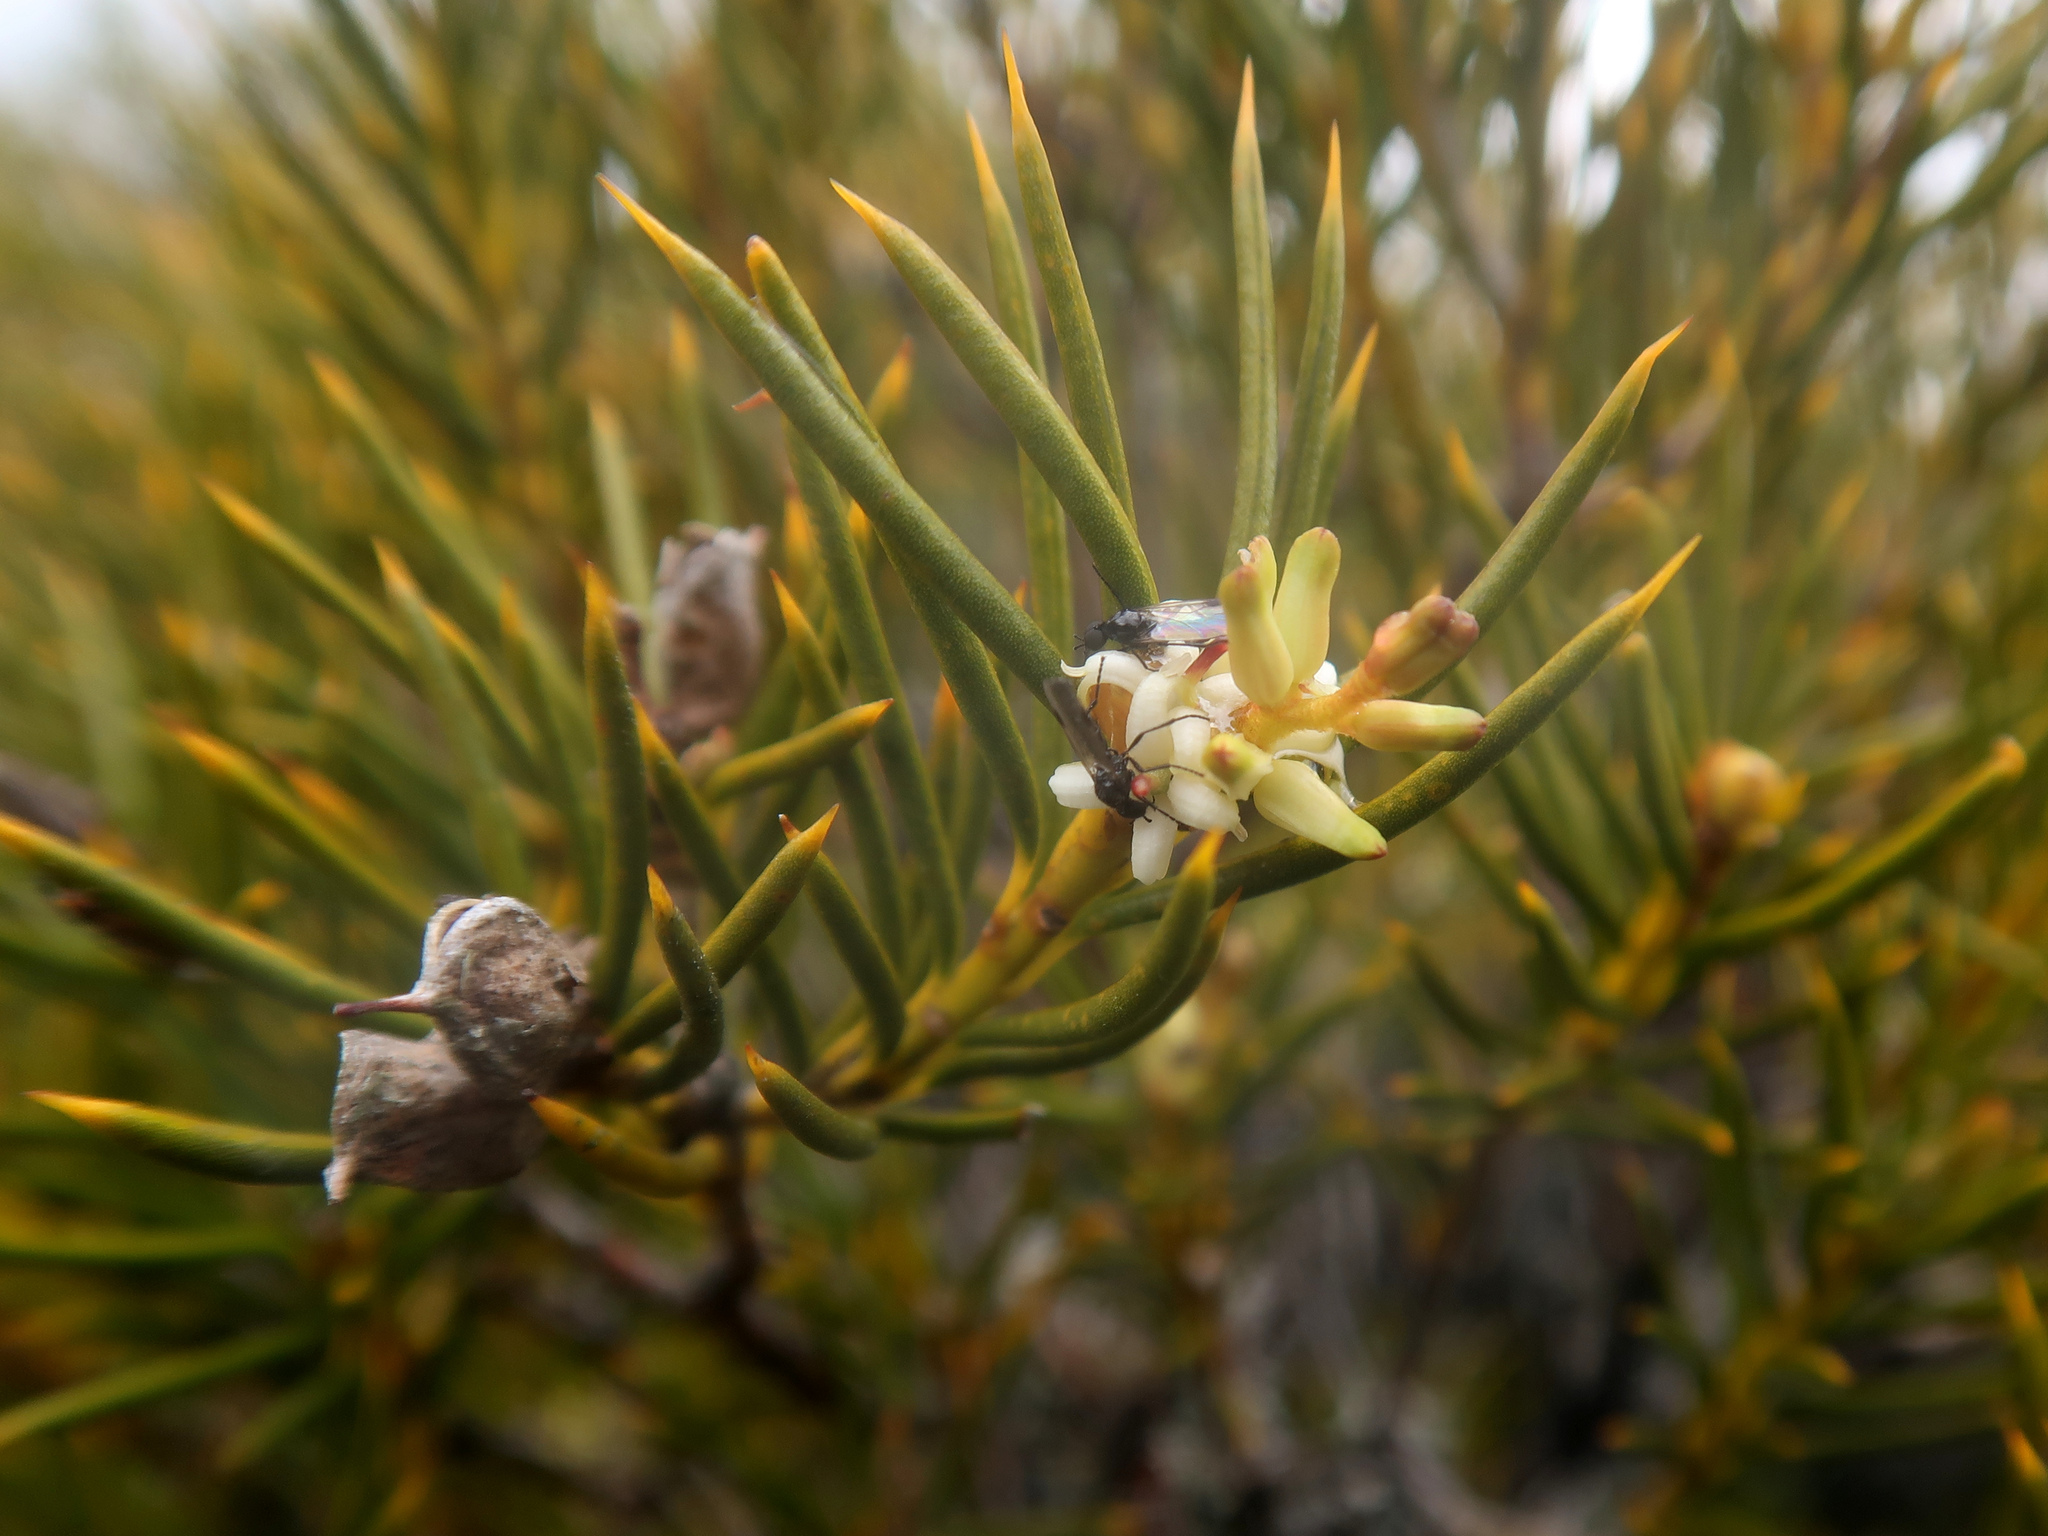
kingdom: Plantae
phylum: Tracheophyta
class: Magnoliopsida
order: Proteales
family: Proteaceae
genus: Orites
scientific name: Orites acicularis
